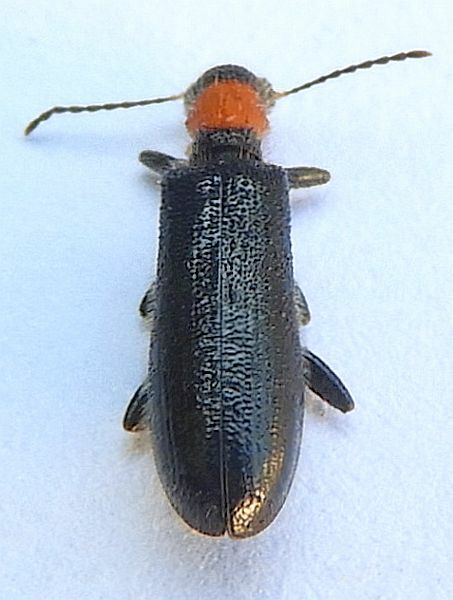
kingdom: Animalia
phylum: Arthropoda
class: Insecta
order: Coleoptera
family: Cleridae
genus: Cymatodera
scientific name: Cymatodera bicolor
